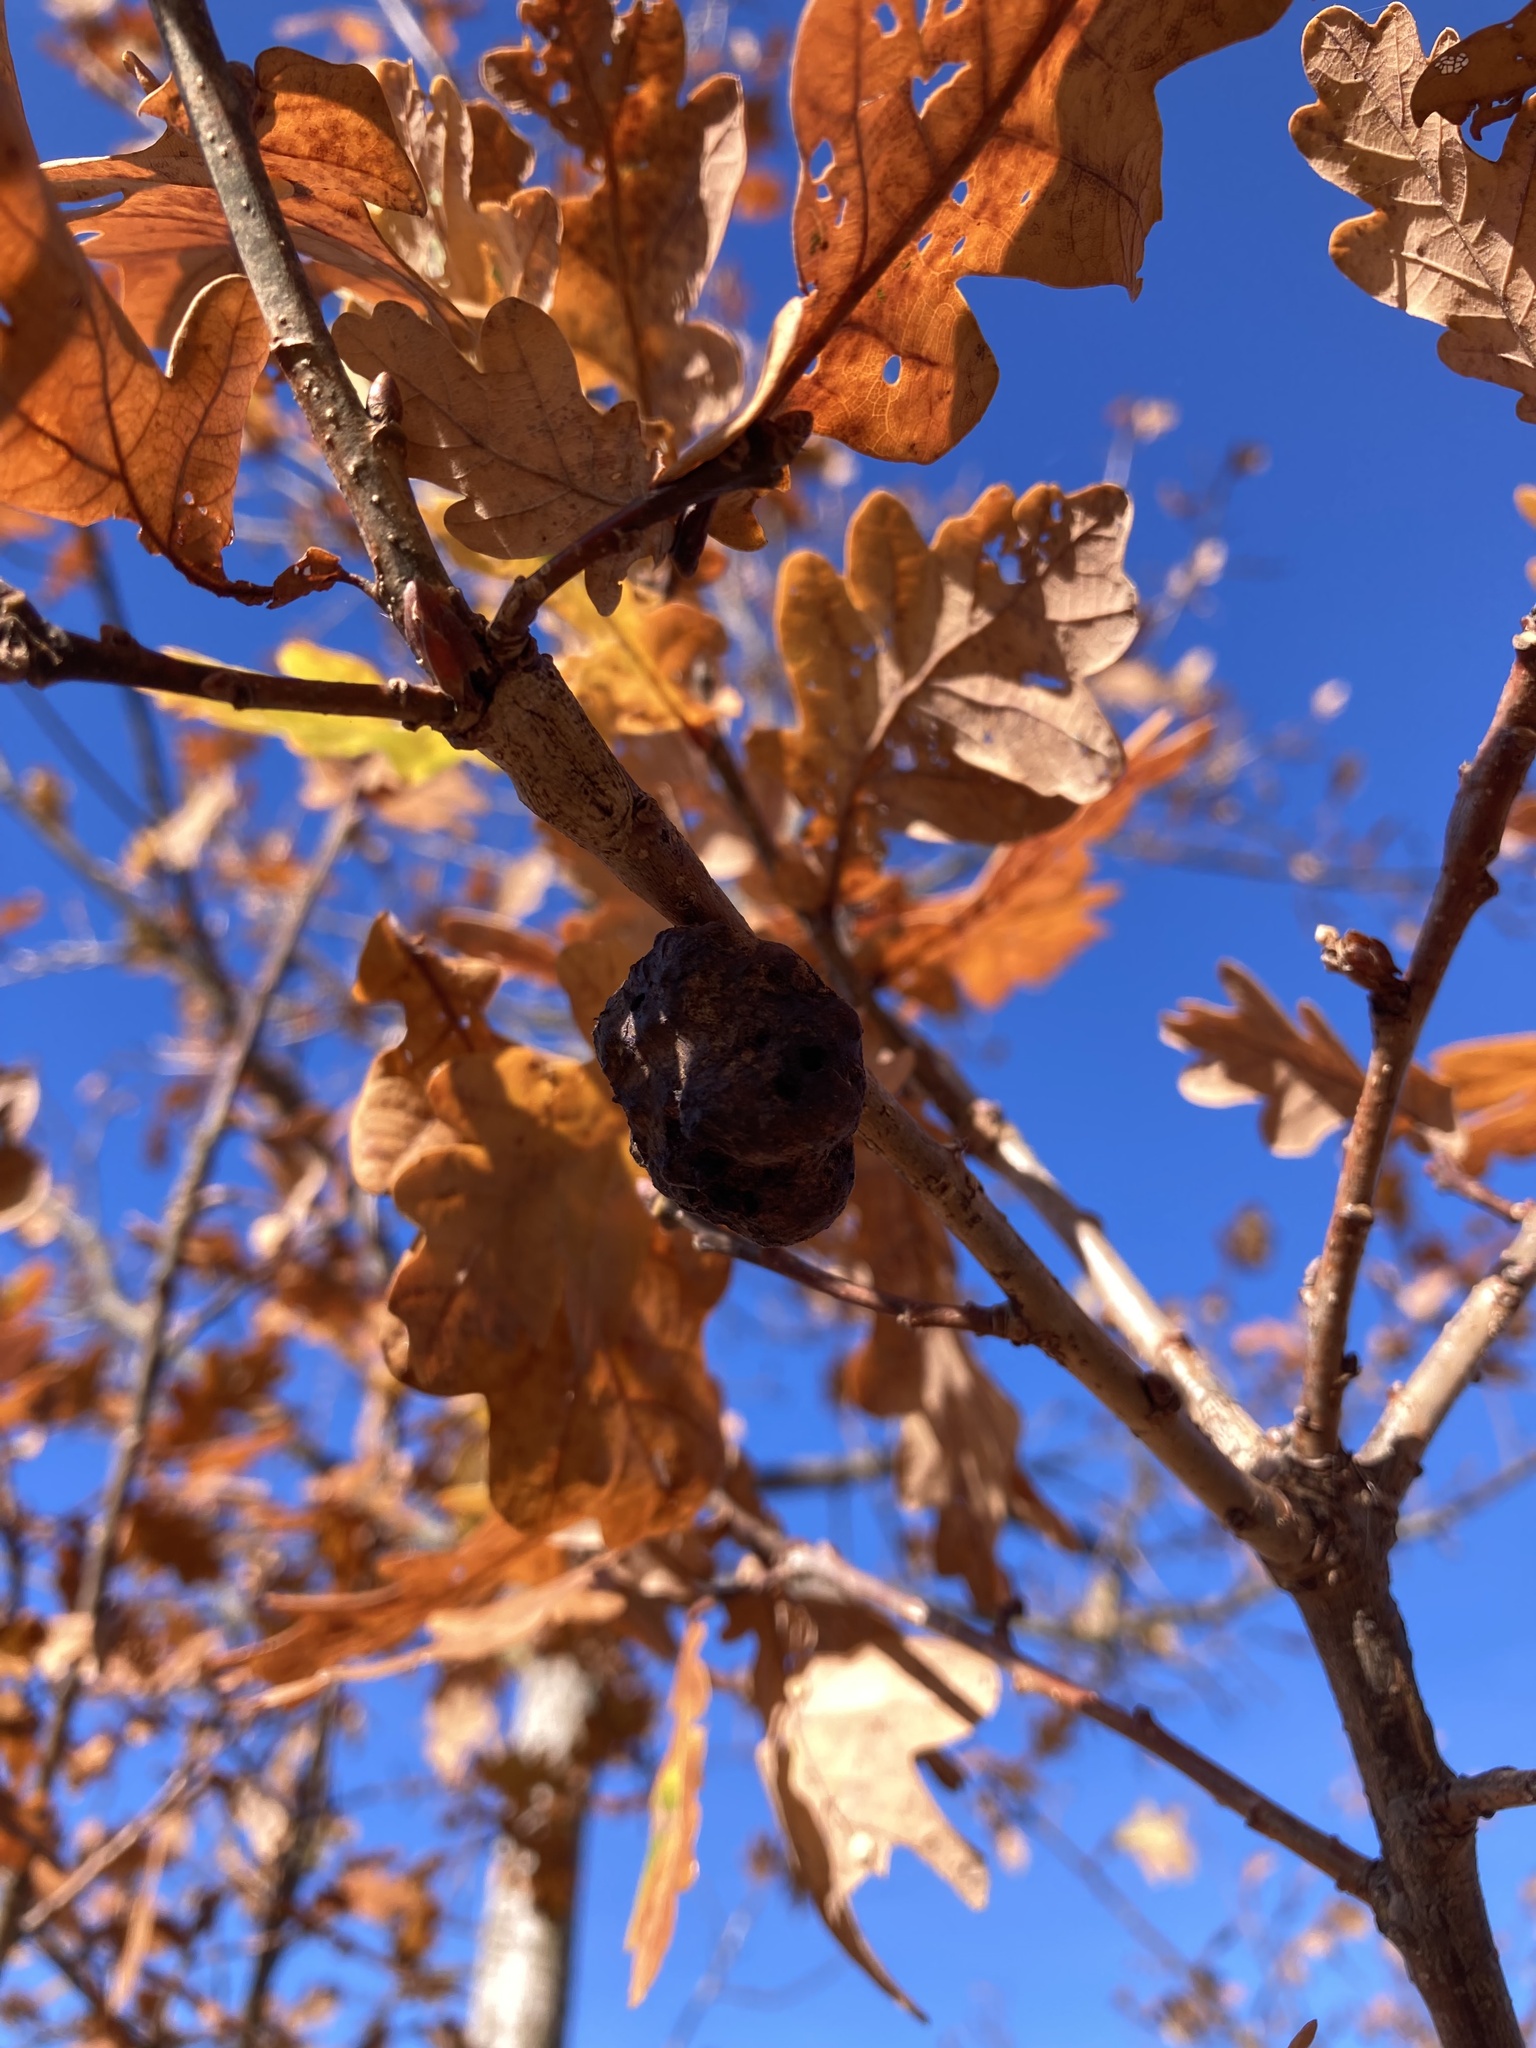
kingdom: Animalia
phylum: Arthropoda
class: Insecta
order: Hymenoptera
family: Cynipidae
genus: Biorhiza
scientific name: Biorhiza pallida
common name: Oak apple
